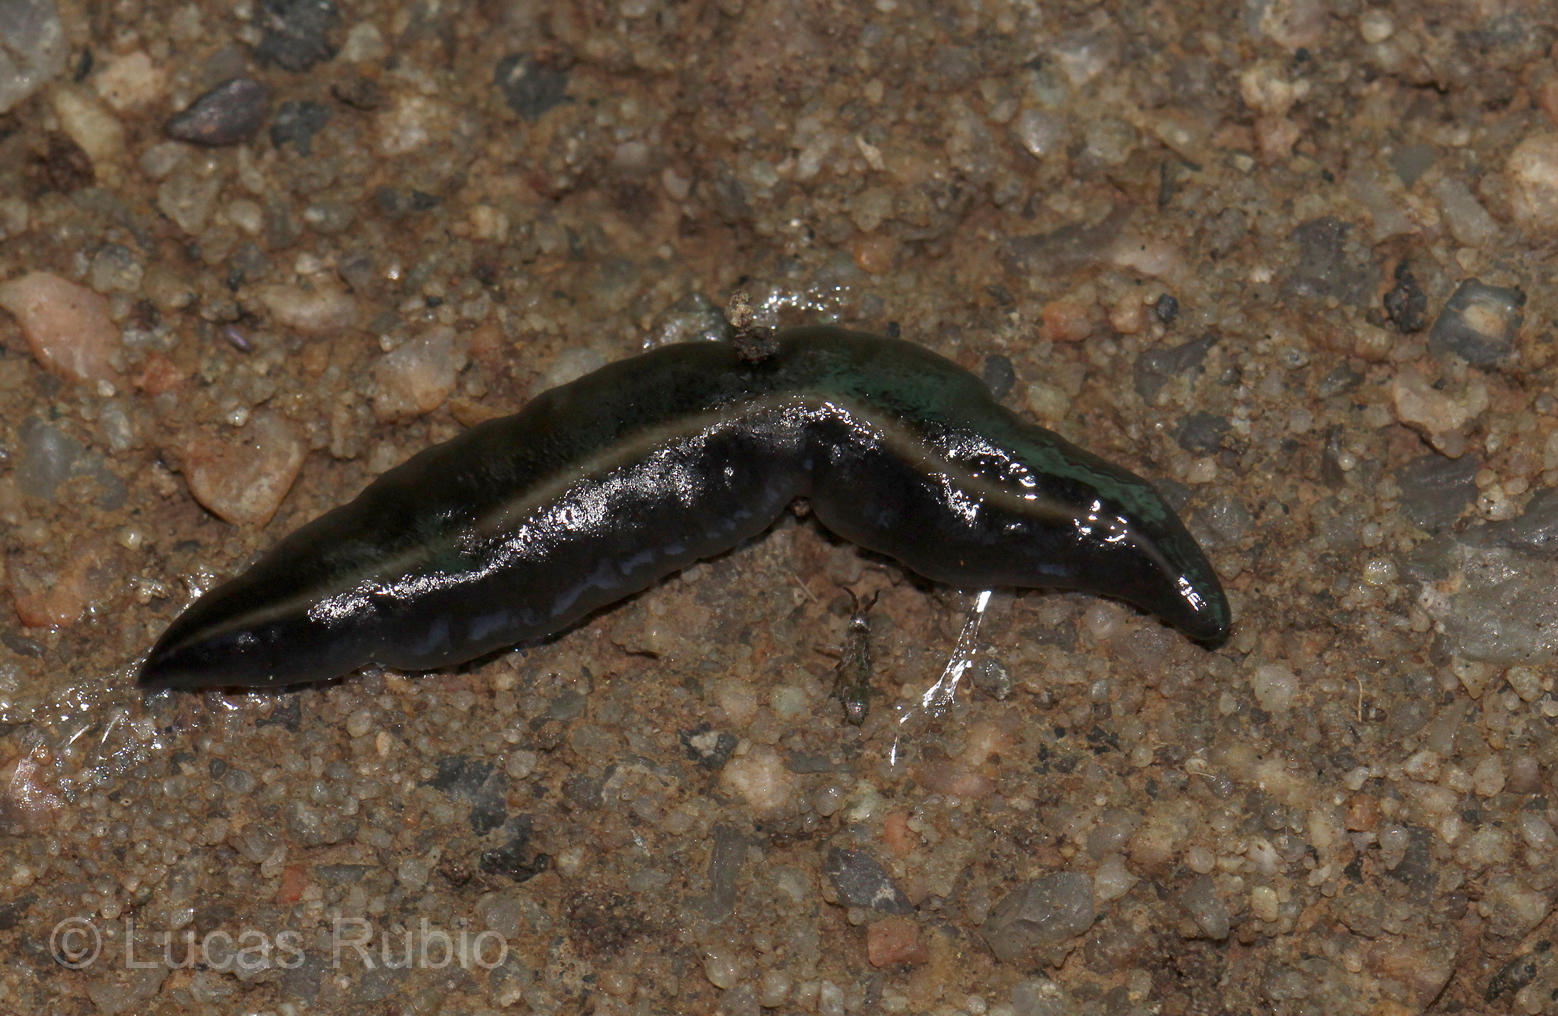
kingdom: Animalia
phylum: Platyhelminthes
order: Tricladida
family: Geoplanidae
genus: Obama
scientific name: Obama nungara
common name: Obama flatworm
